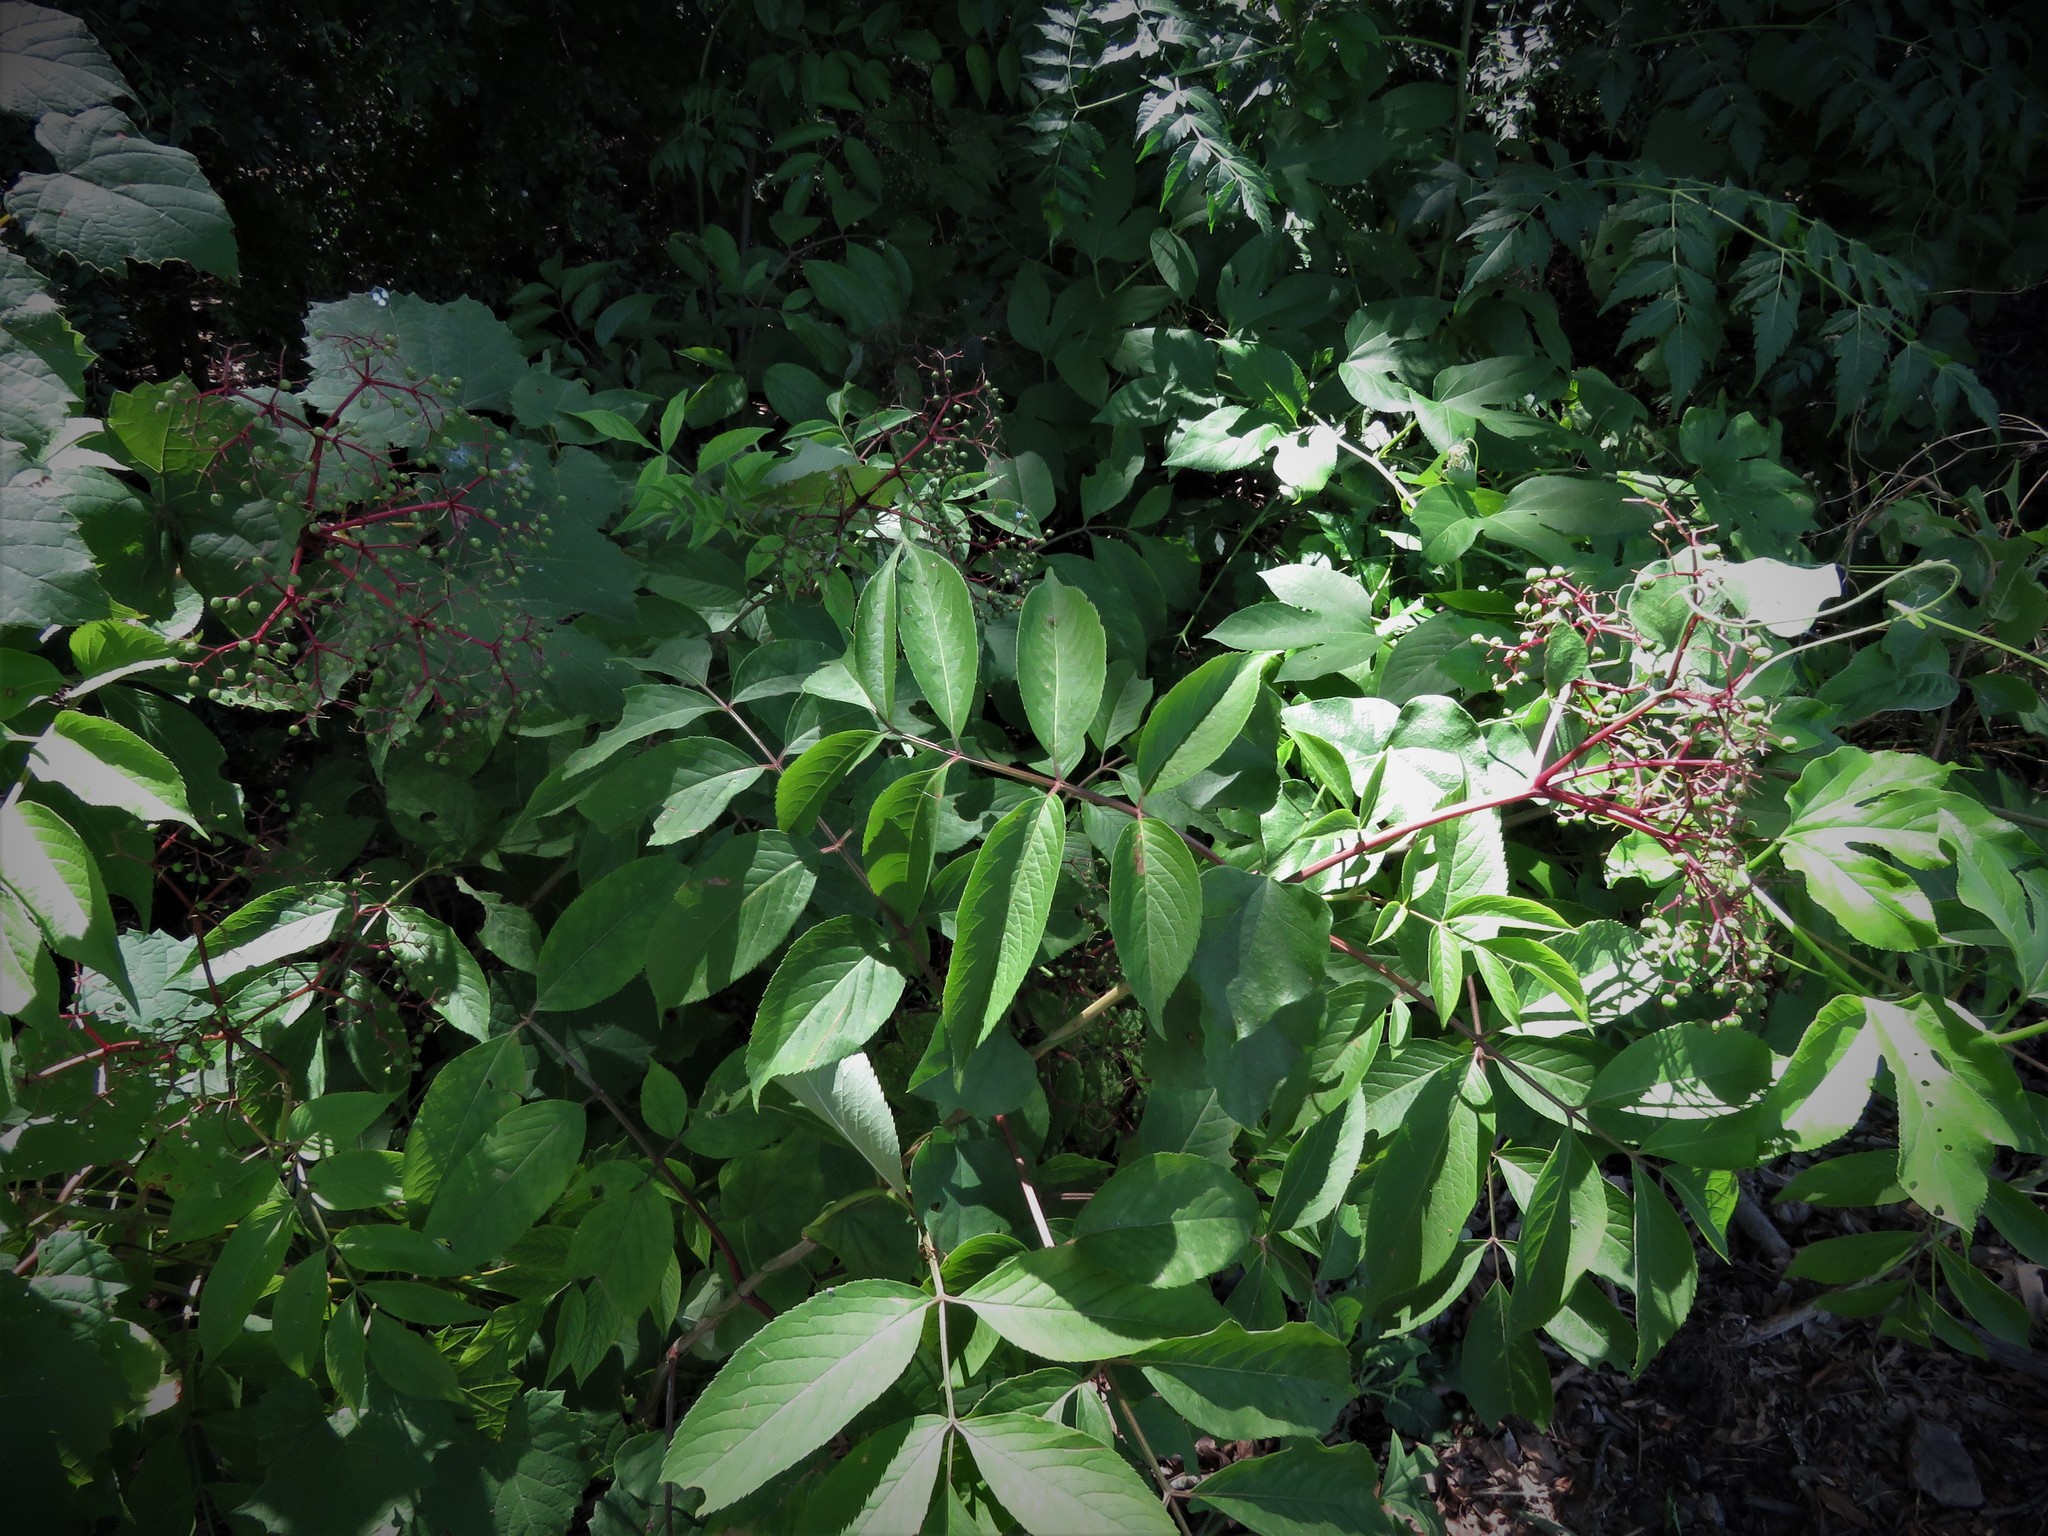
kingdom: Plantae
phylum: Tracheophyta
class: Magnoliopsida
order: Dipsacales
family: Viburnaceae
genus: Sambucus
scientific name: Sambucus canadensis
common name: American elder
